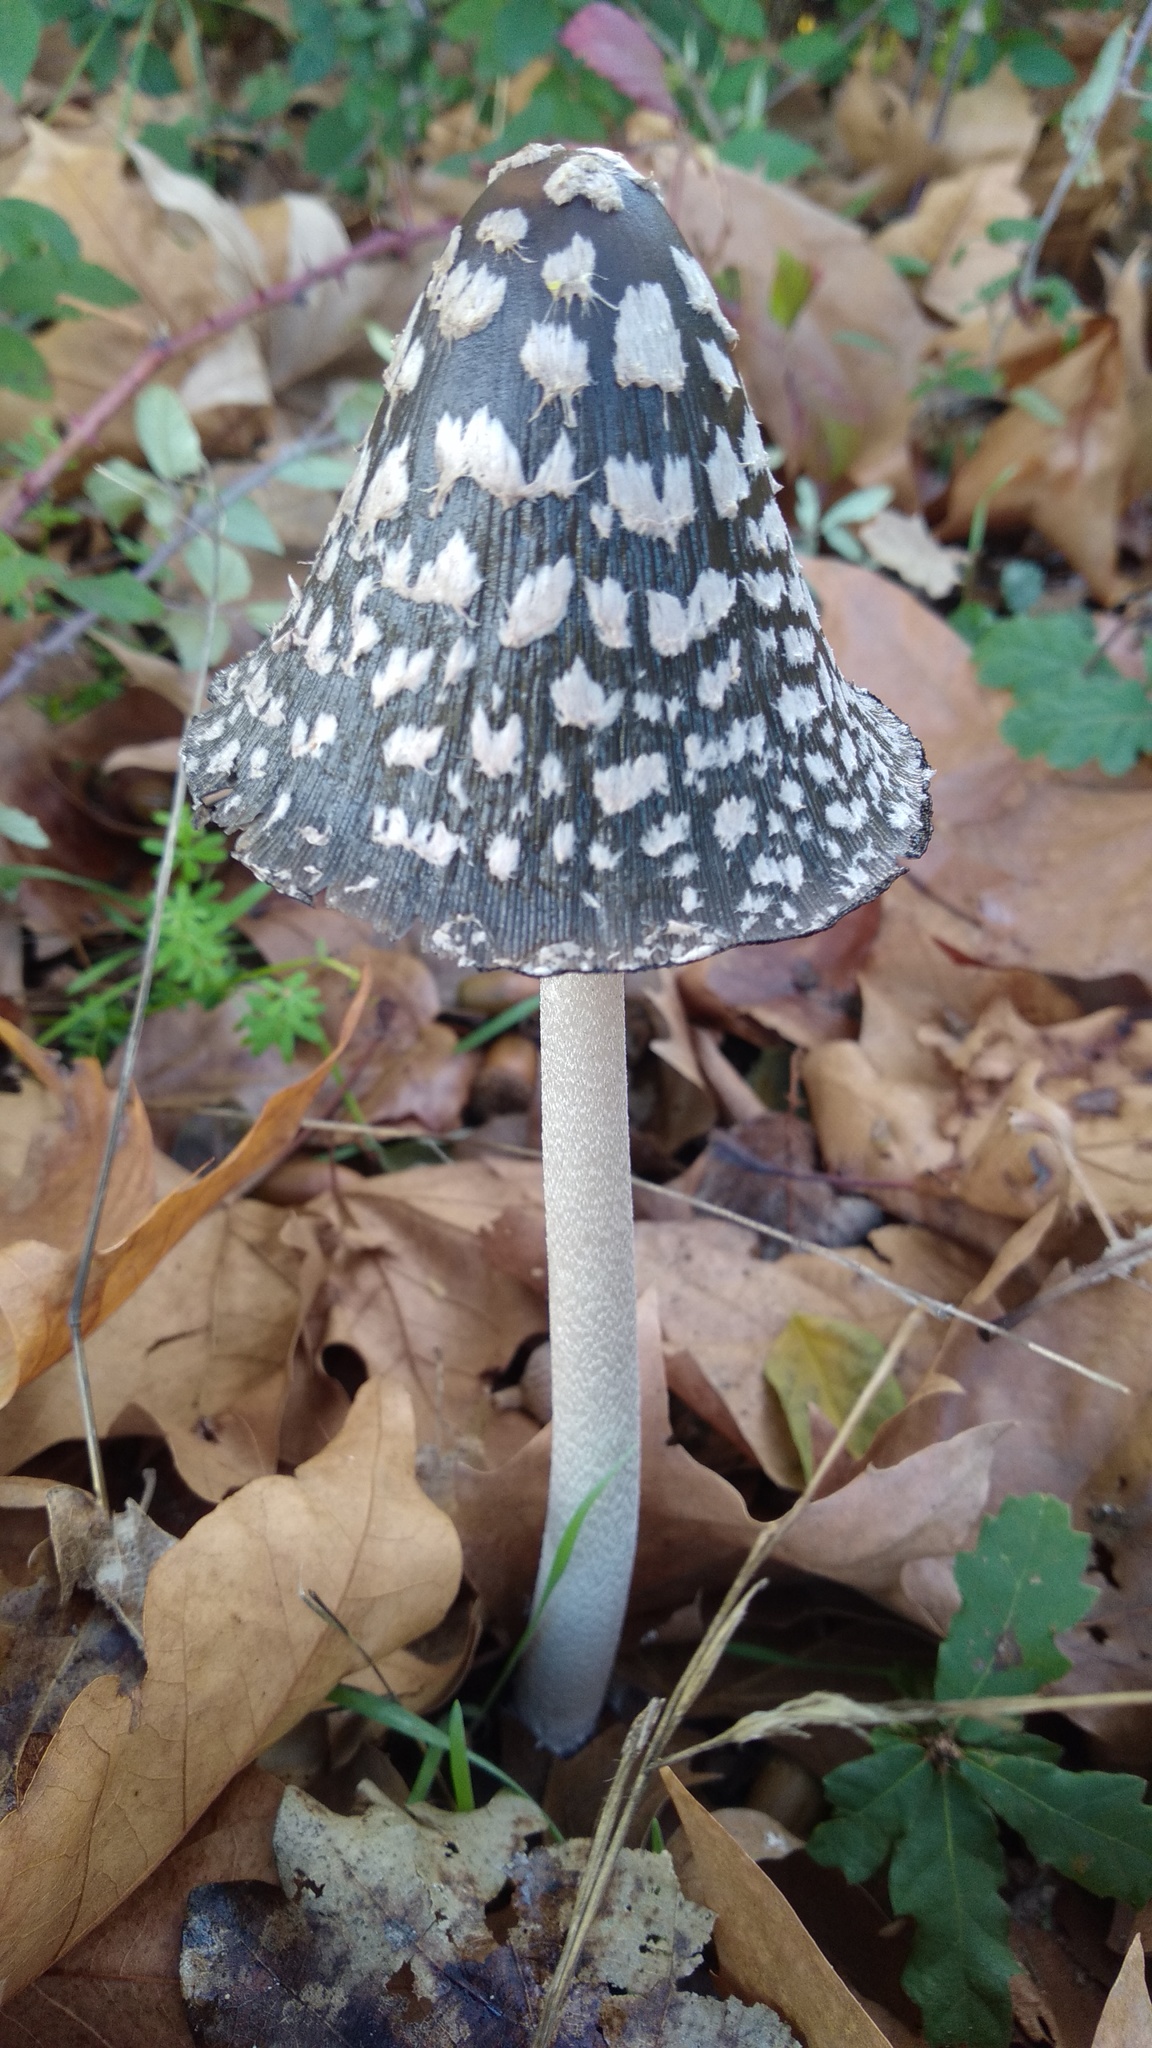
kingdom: Fungi
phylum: Basidiomycota
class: Agaricomycetes
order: Agaricales
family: Psathyrellaceae
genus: Coprinopsis
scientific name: Coprinopsis picacea
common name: Magpie inkcap
